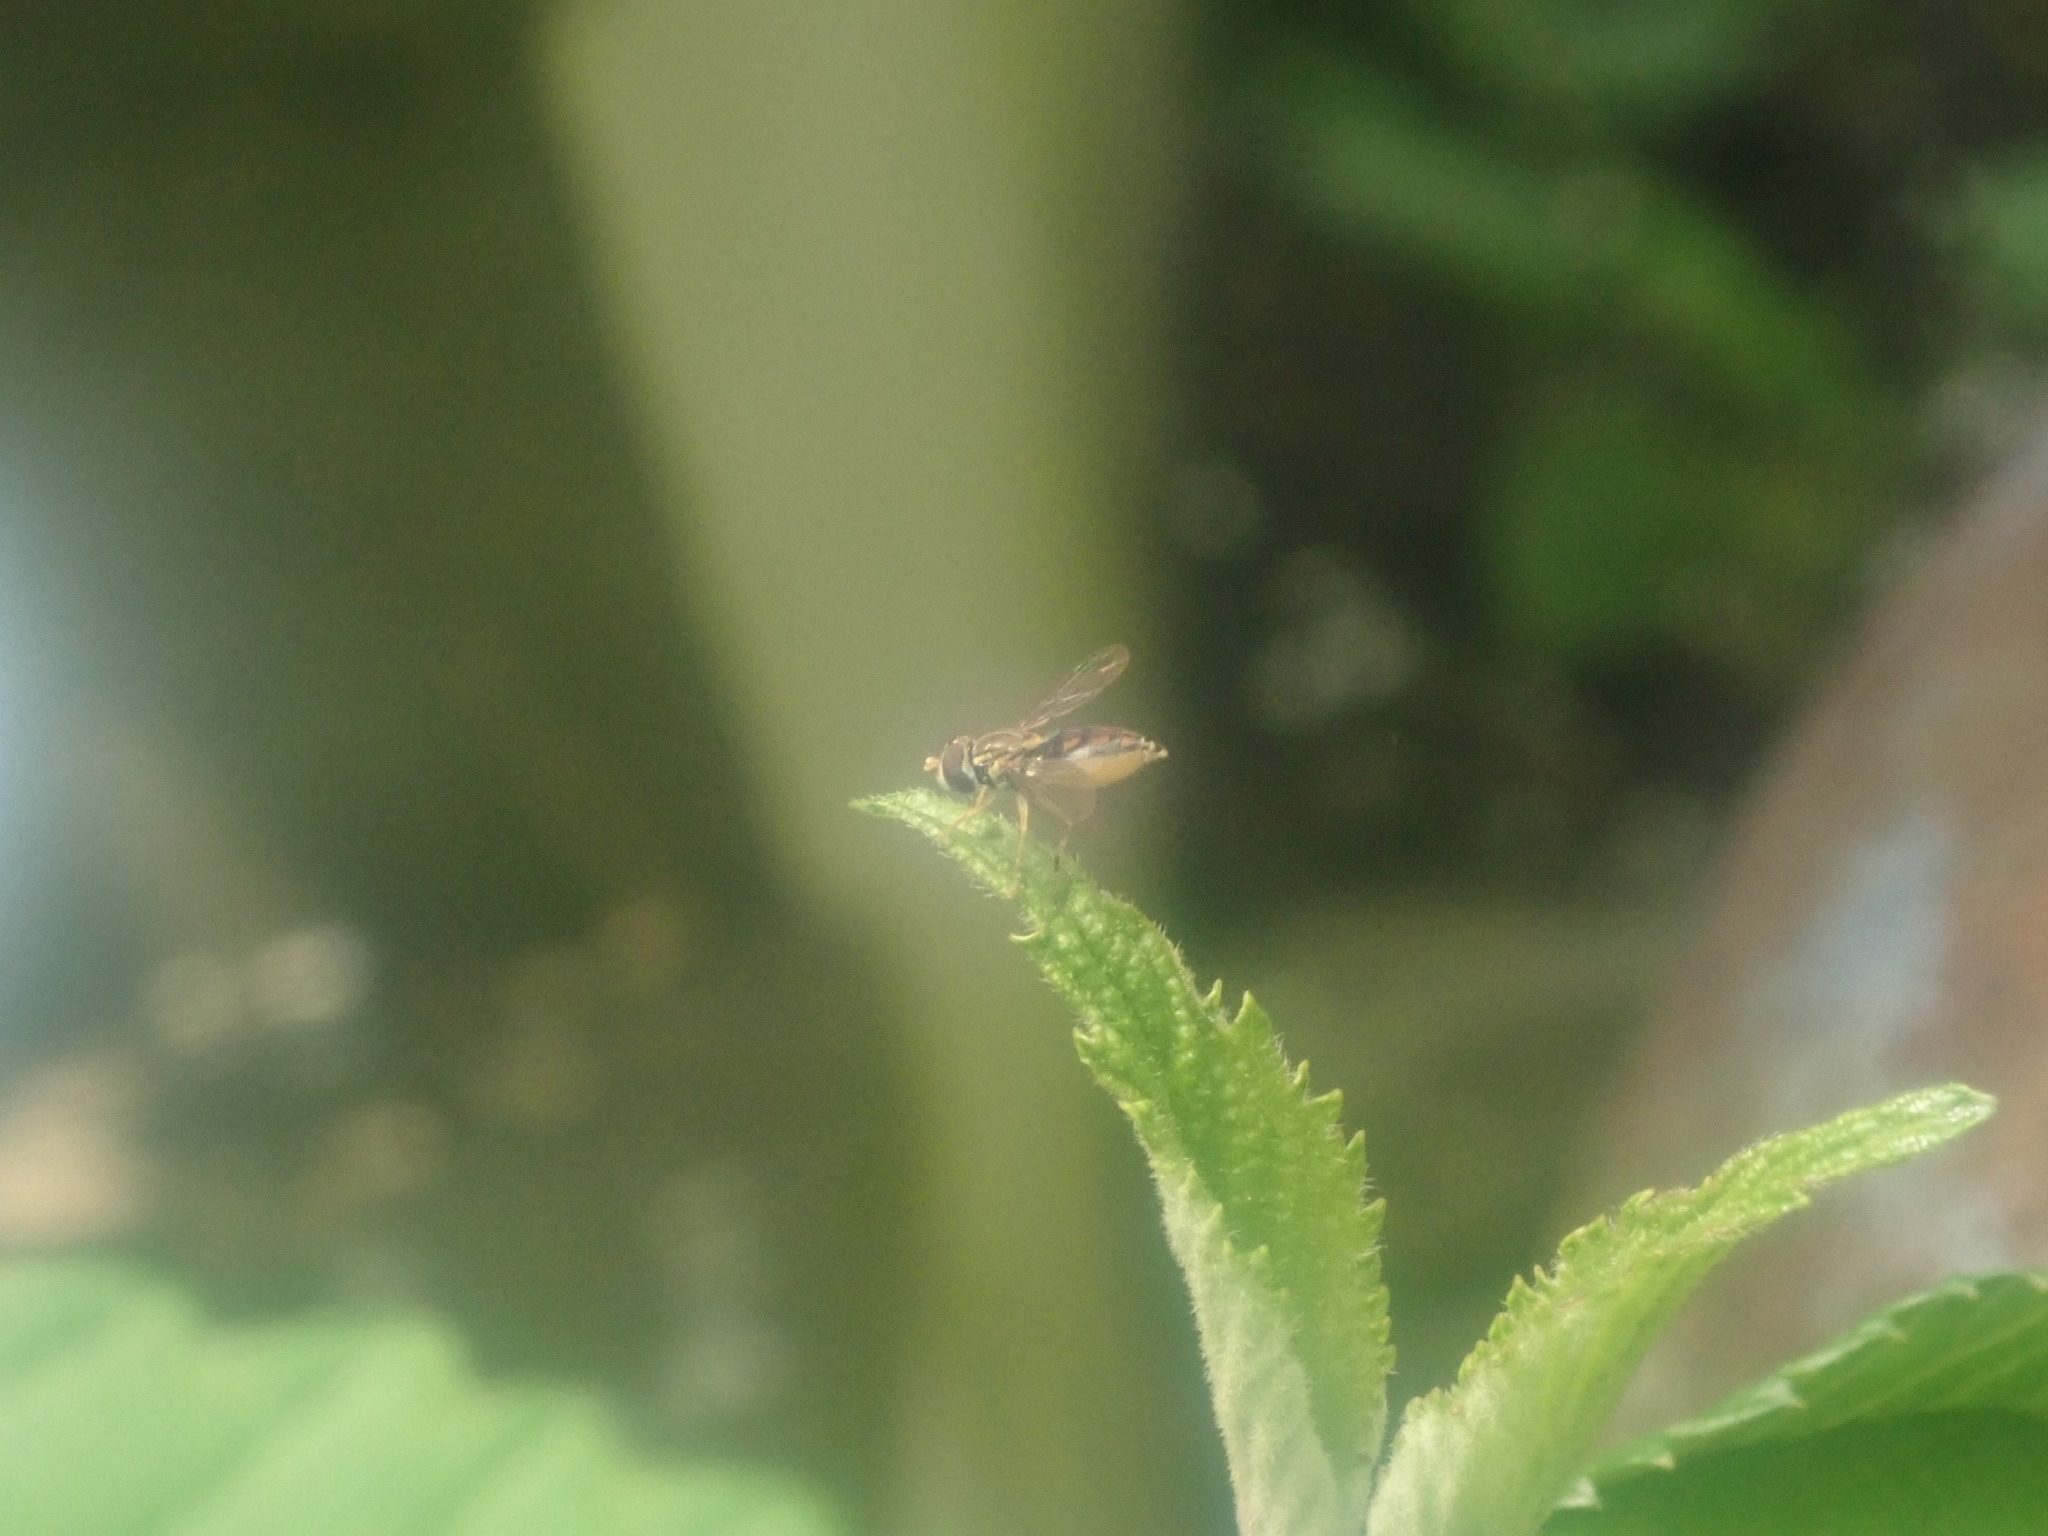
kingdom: Animalia
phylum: Arthropoda
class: Insecta
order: Diptera
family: Syrphidae
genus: Toxomerus
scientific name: Toxomerus marginatus
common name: Syrphid fly
